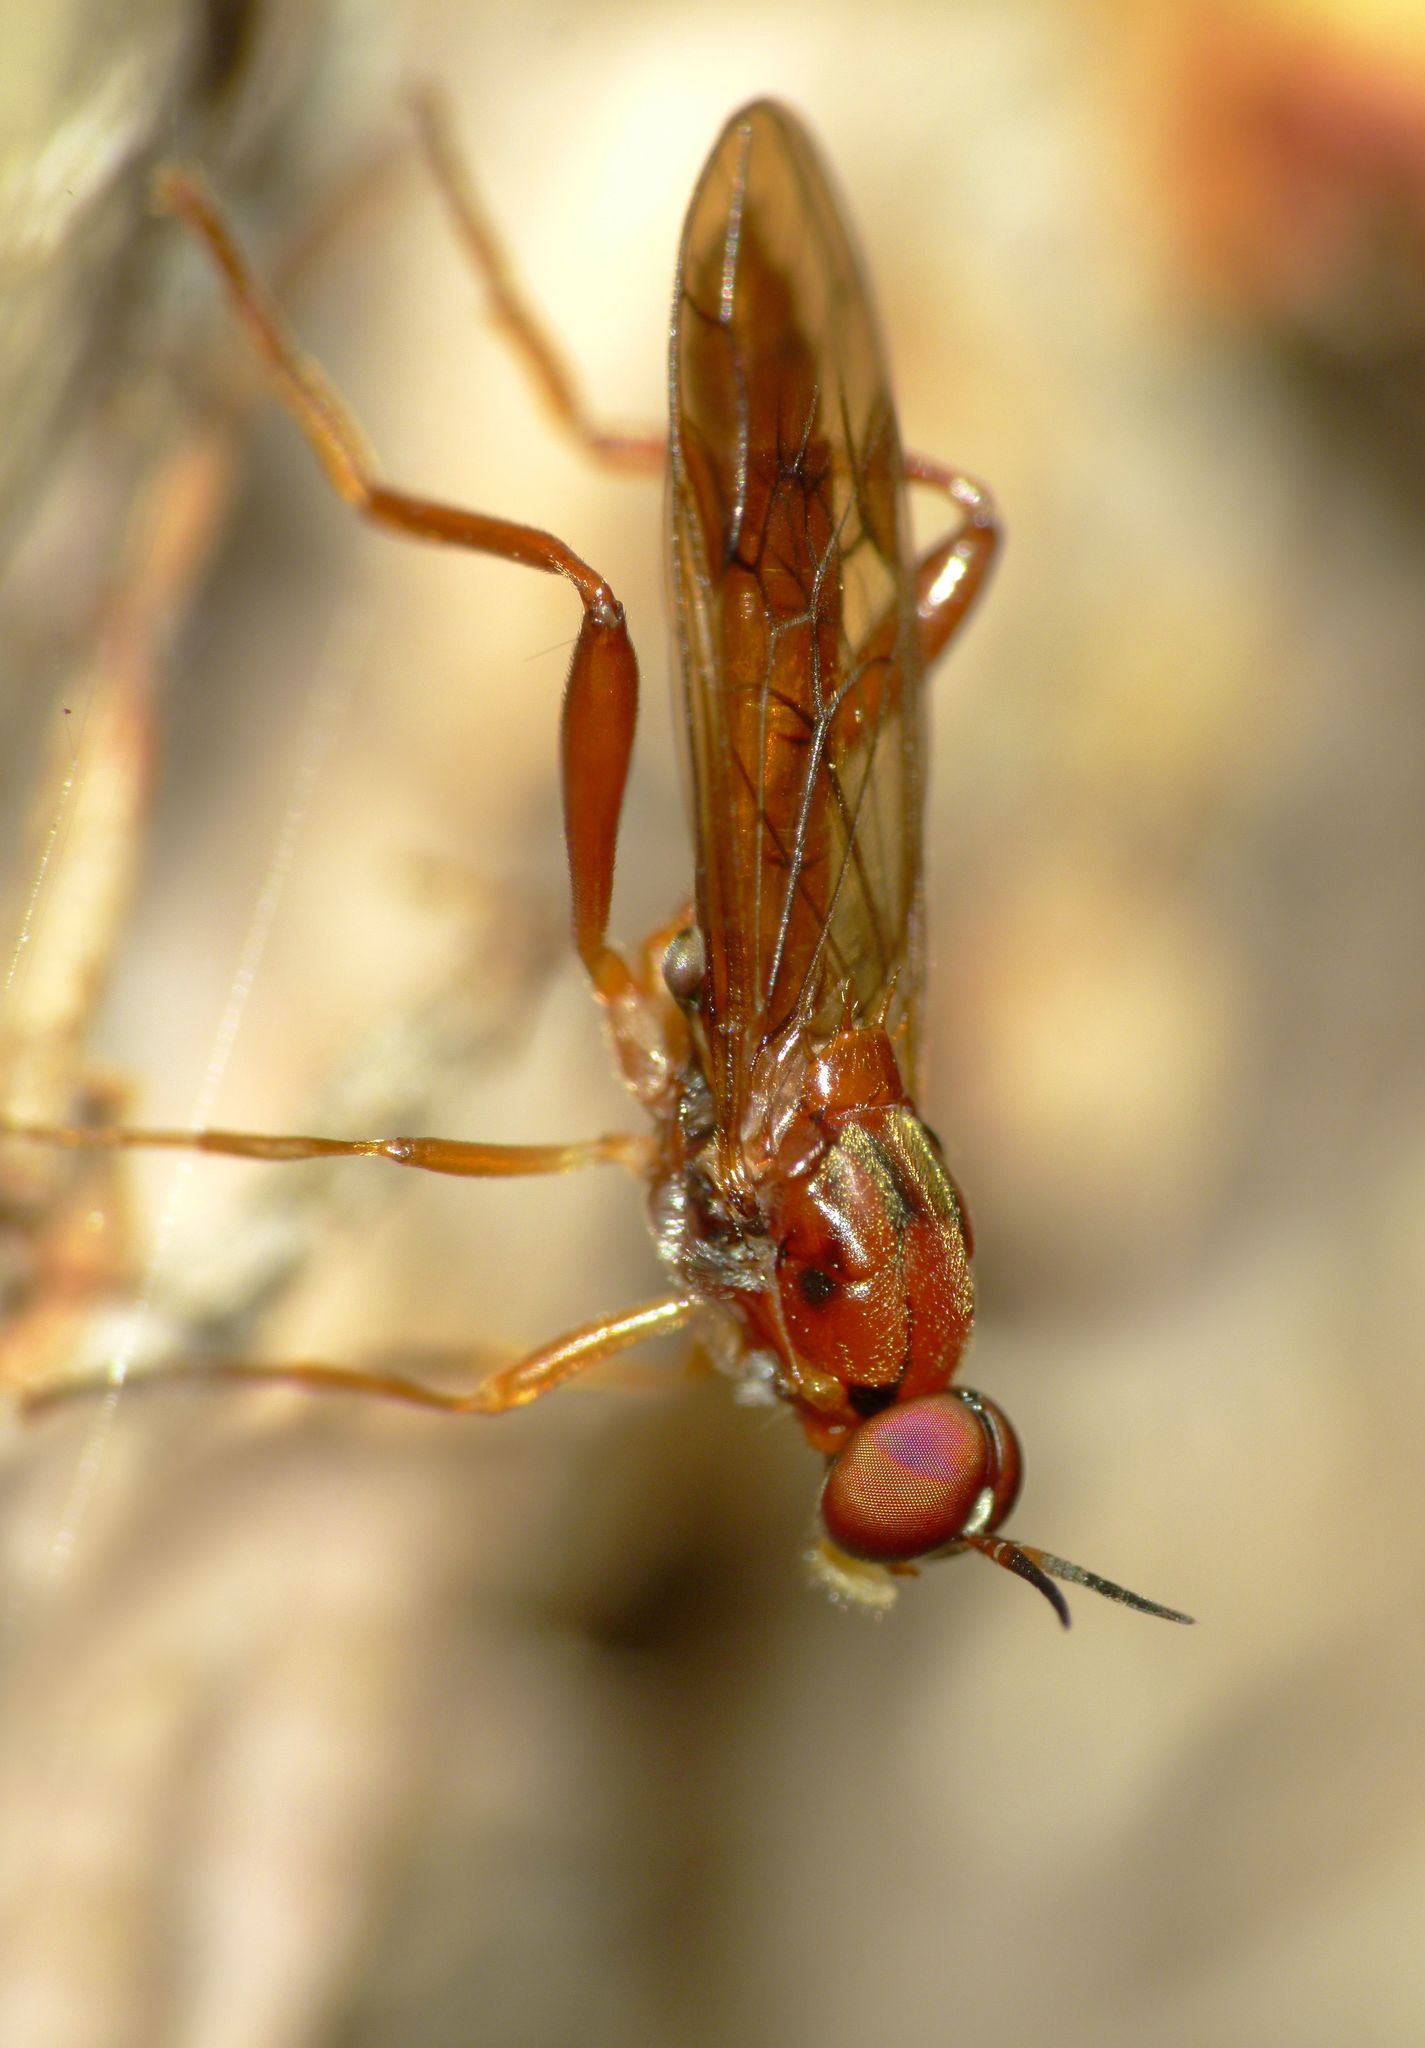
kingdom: Animalia
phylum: Arthropoda
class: Insecta
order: Diptera
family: Stratiomyidae
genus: Benhamyia
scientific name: Benhamyia straznitzkii
